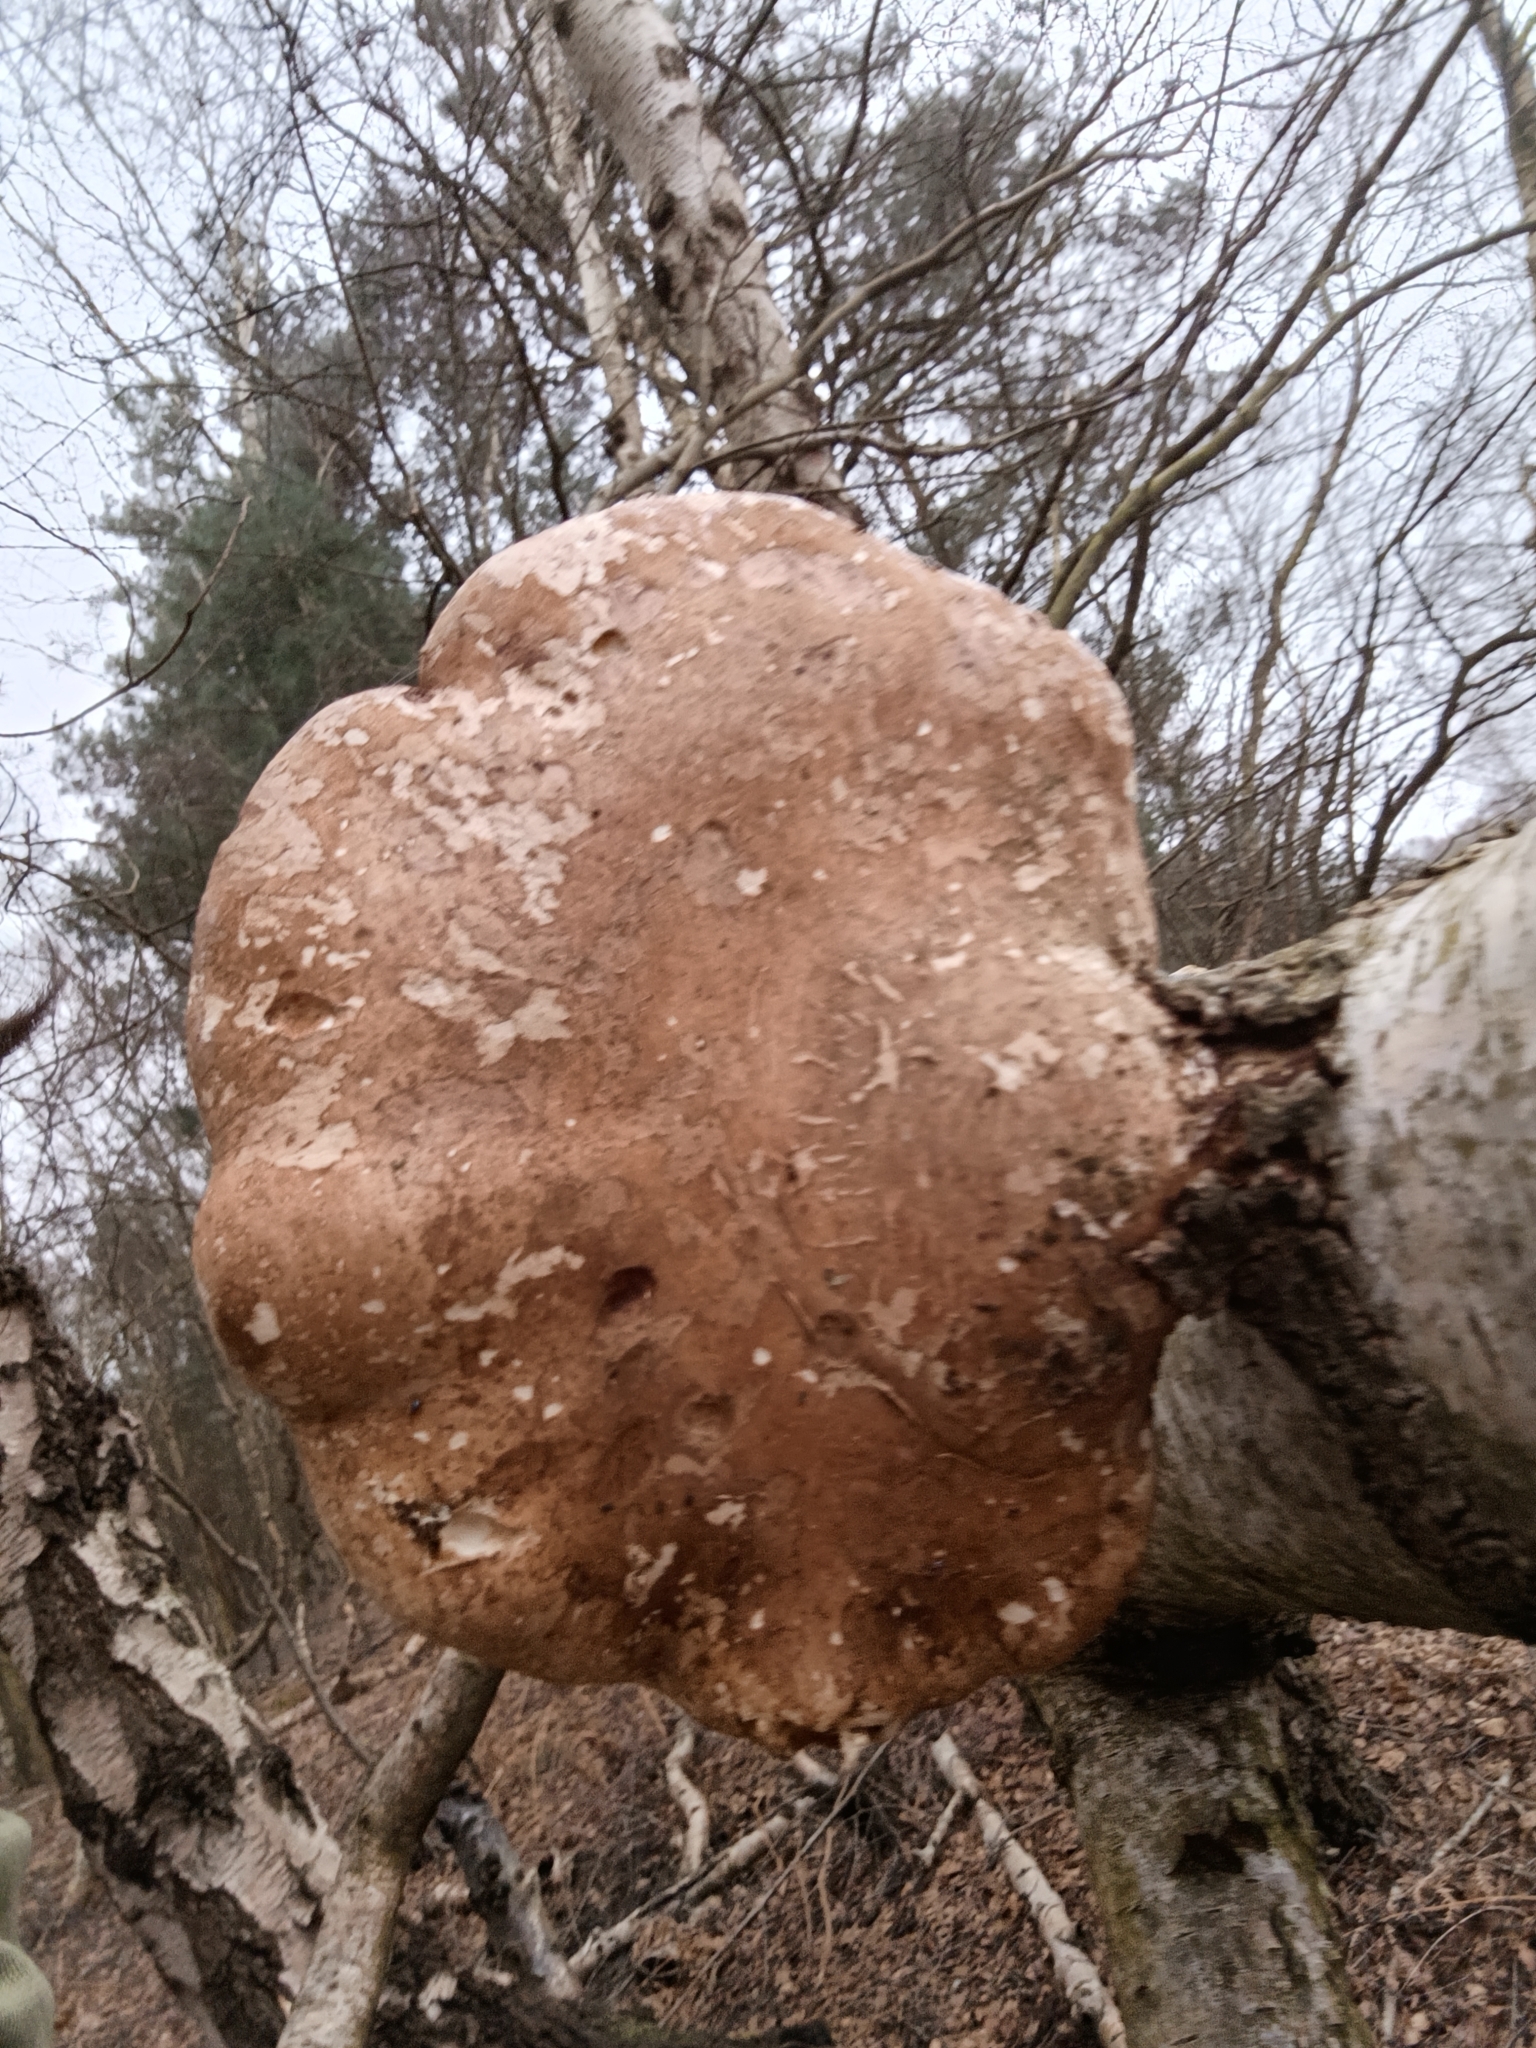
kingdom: Fungi
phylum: Basidiomycota
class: Agaricomycetes
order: Polyporales
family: Fomitopsidaceae
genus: Fomitopsis
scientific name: Fomitopsis betulina
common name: Birch polypore
